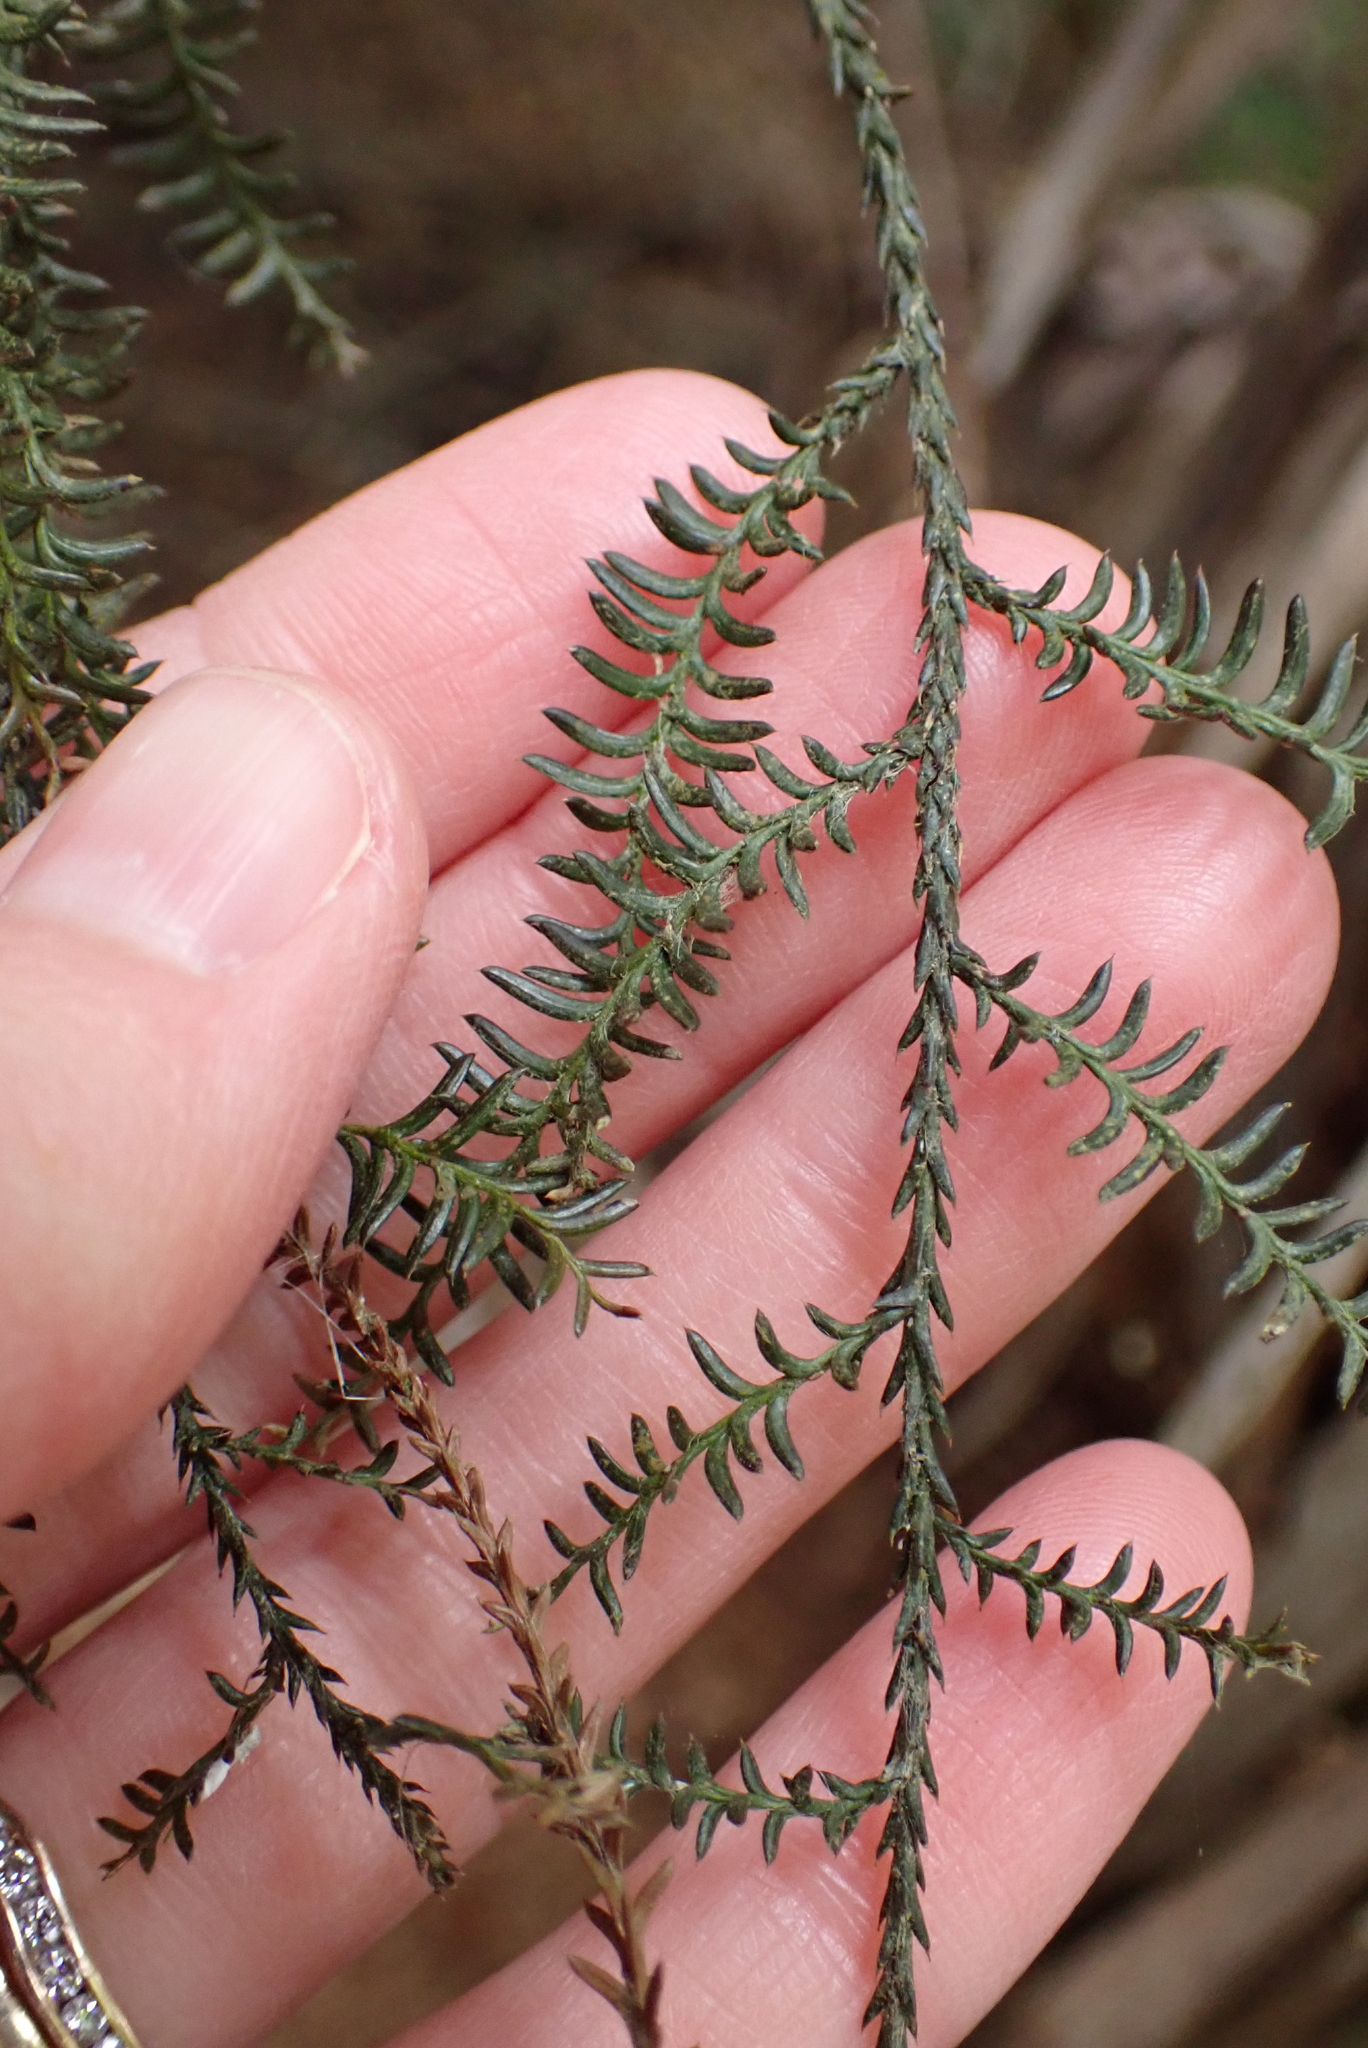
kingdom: Plantae
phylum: Tracheophyta
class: Pinopsida
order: Pinales
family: Podocarpaceae
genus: Dacrycarpus
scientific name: Dacrycarpus dacrydioides
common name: White pine
